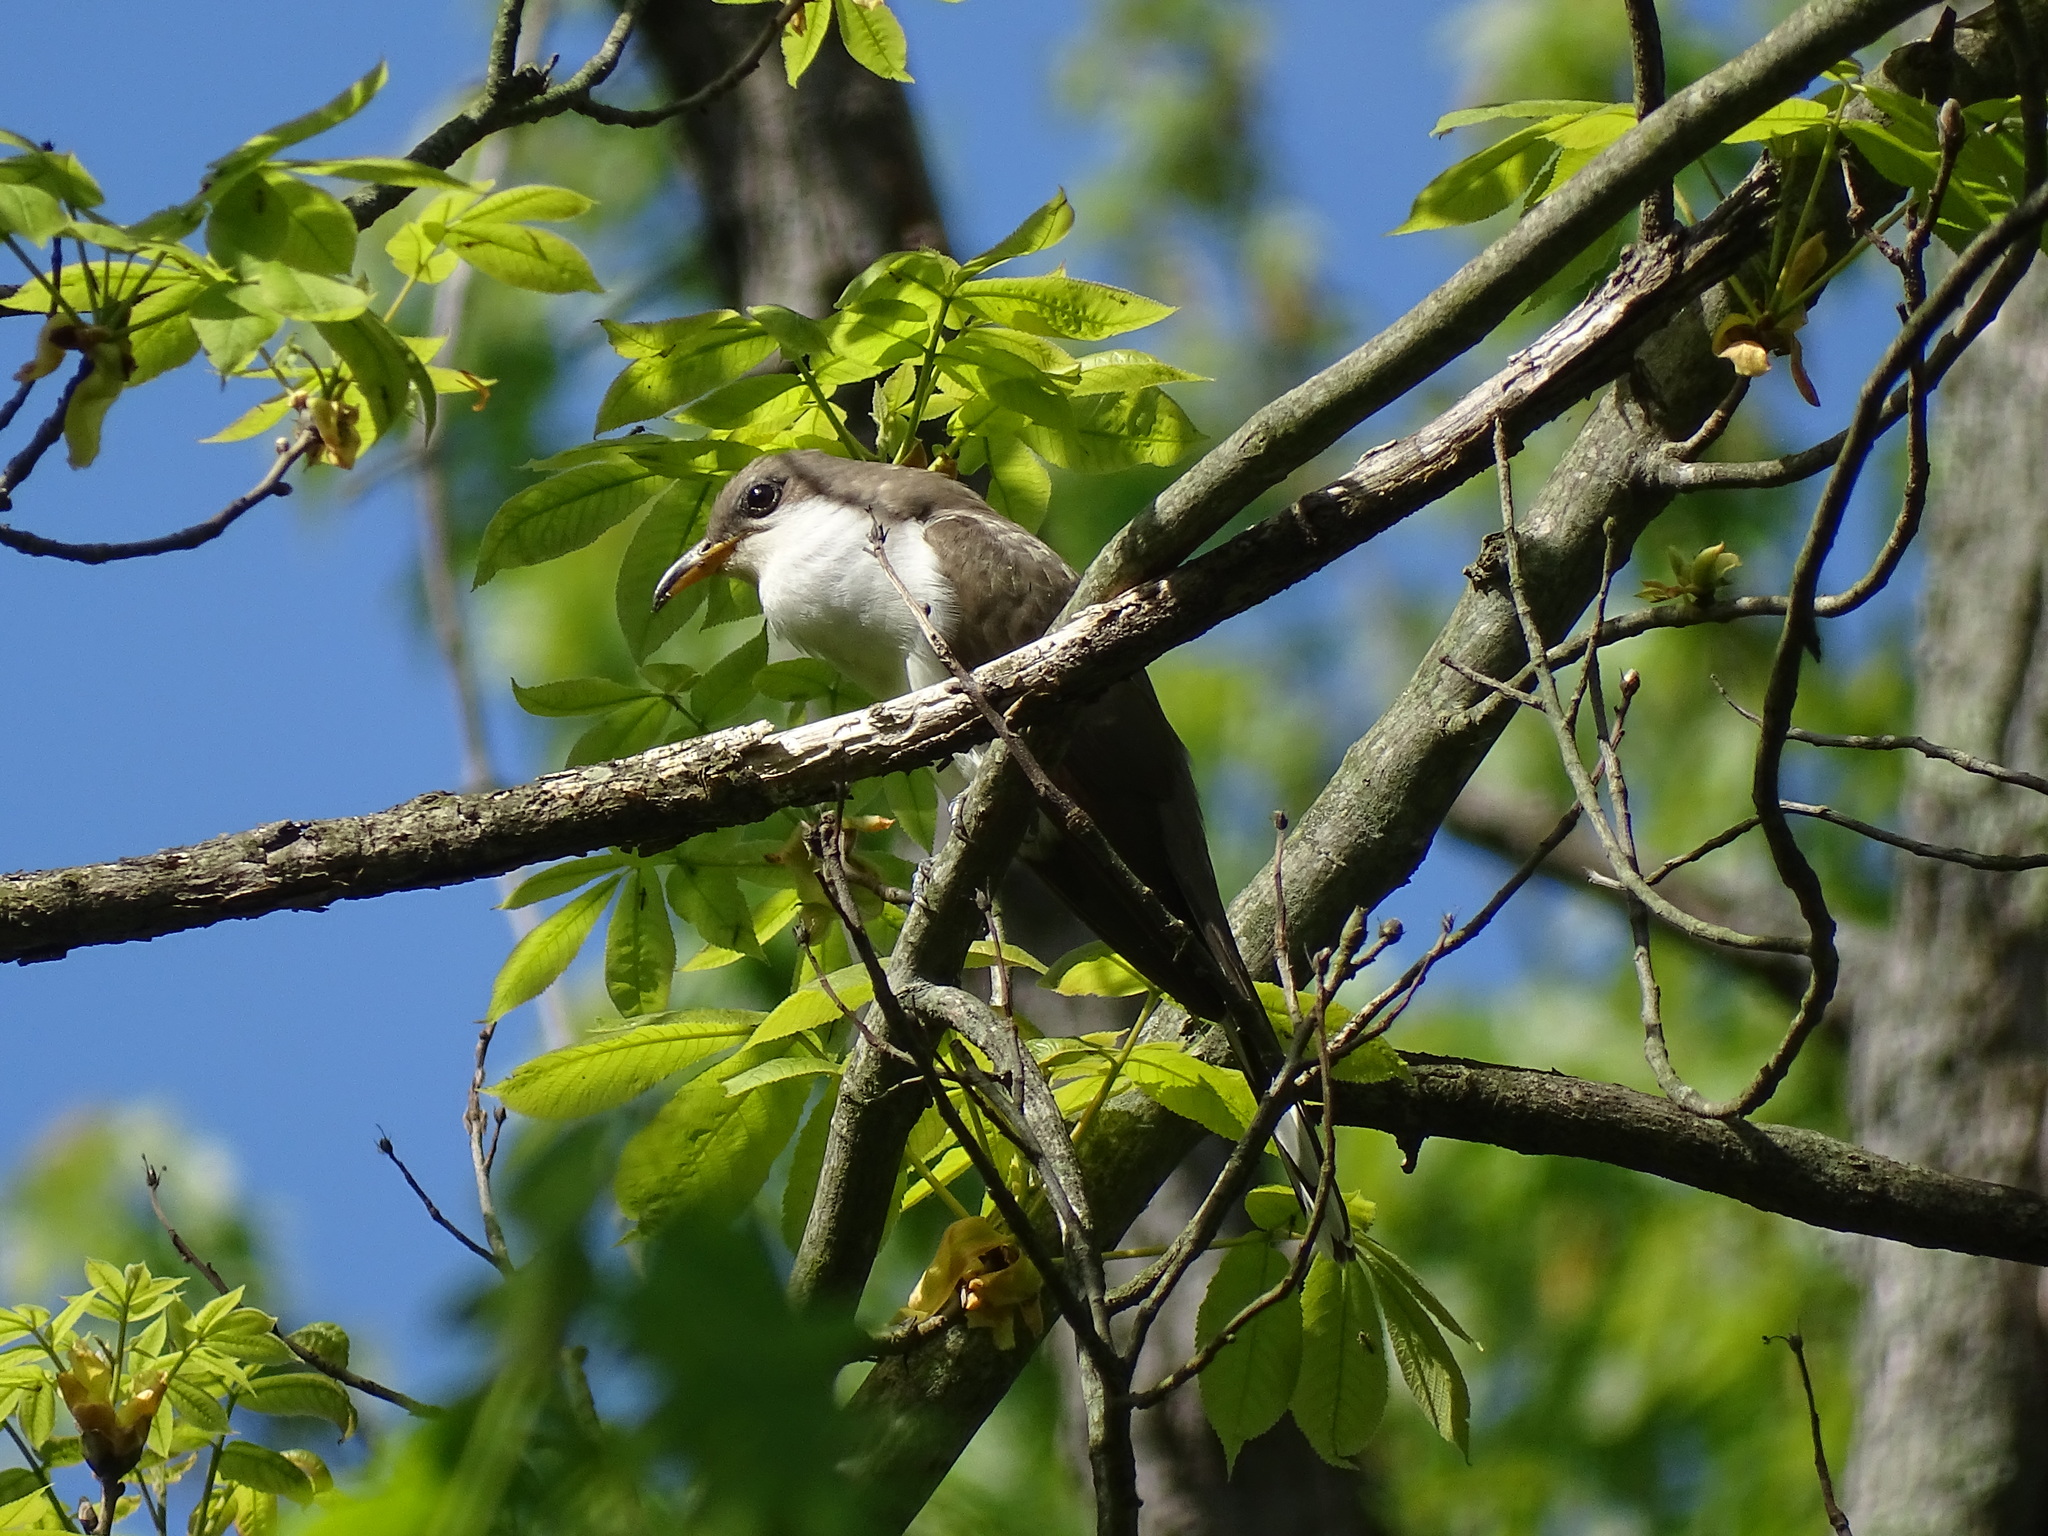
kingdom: Animalia
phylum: Chordata
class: Aves
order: Cuculiformes
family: Cuculidae
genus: Coccyzus
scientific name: Coccyzus americanus
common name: Yellow-billed cuckoo
